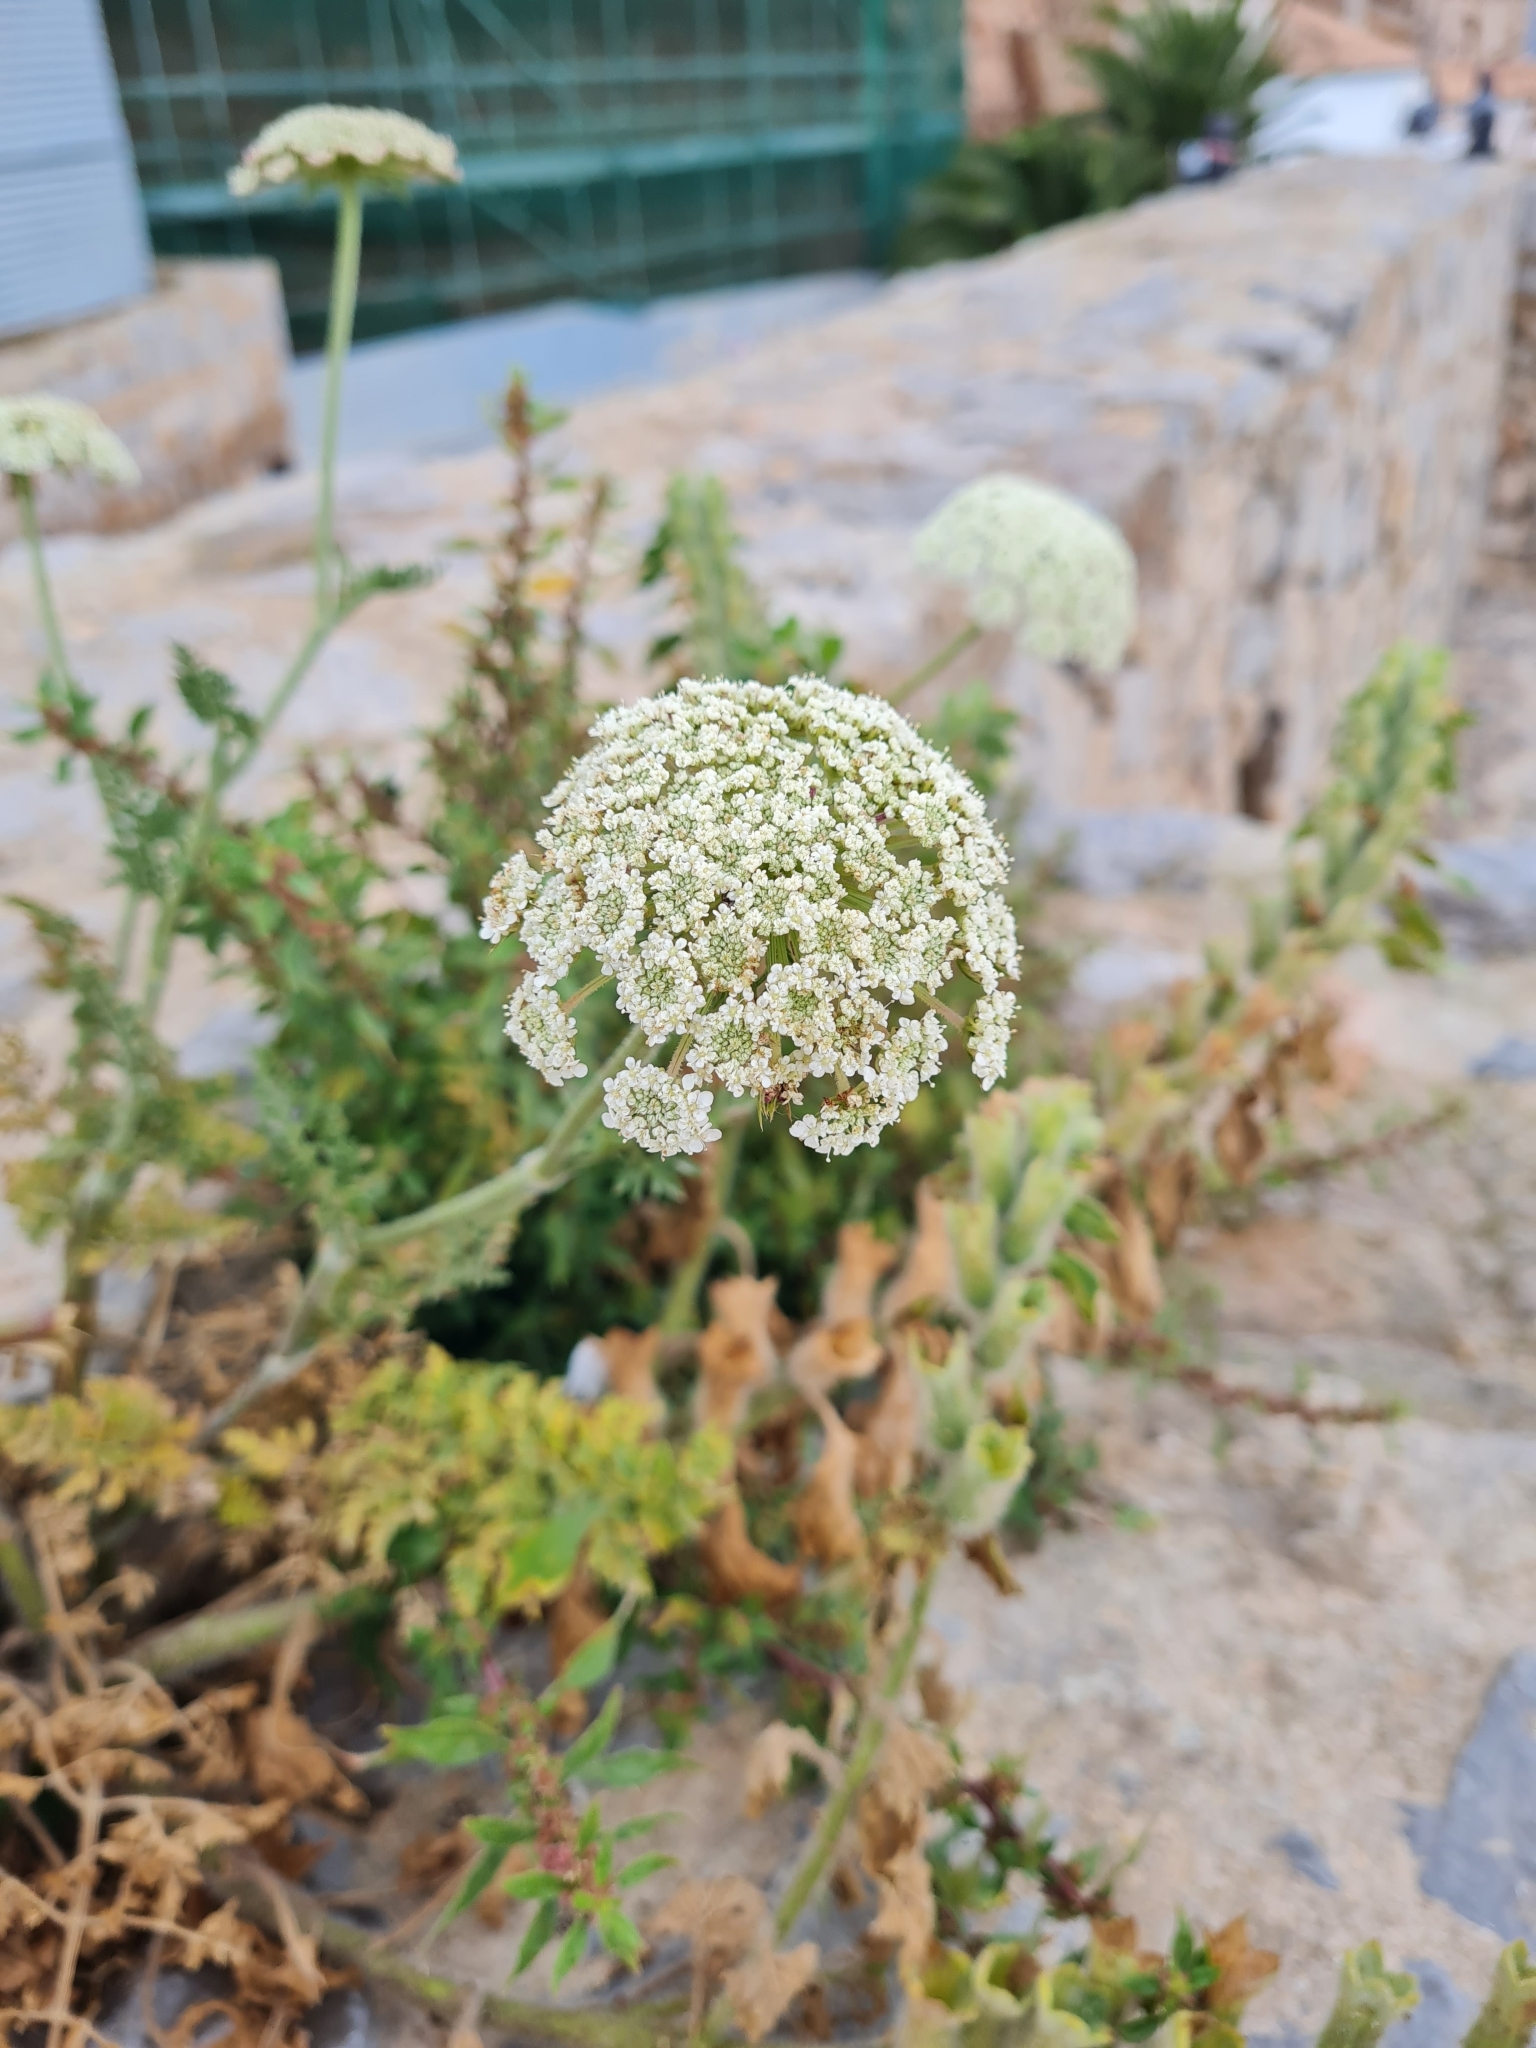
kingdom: Plantae
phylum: Tracheophyta
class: Magnoliopsida
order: Apiales
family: Apiaceae
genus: Daucus
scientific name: Daucus carota
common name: Wild carrot
